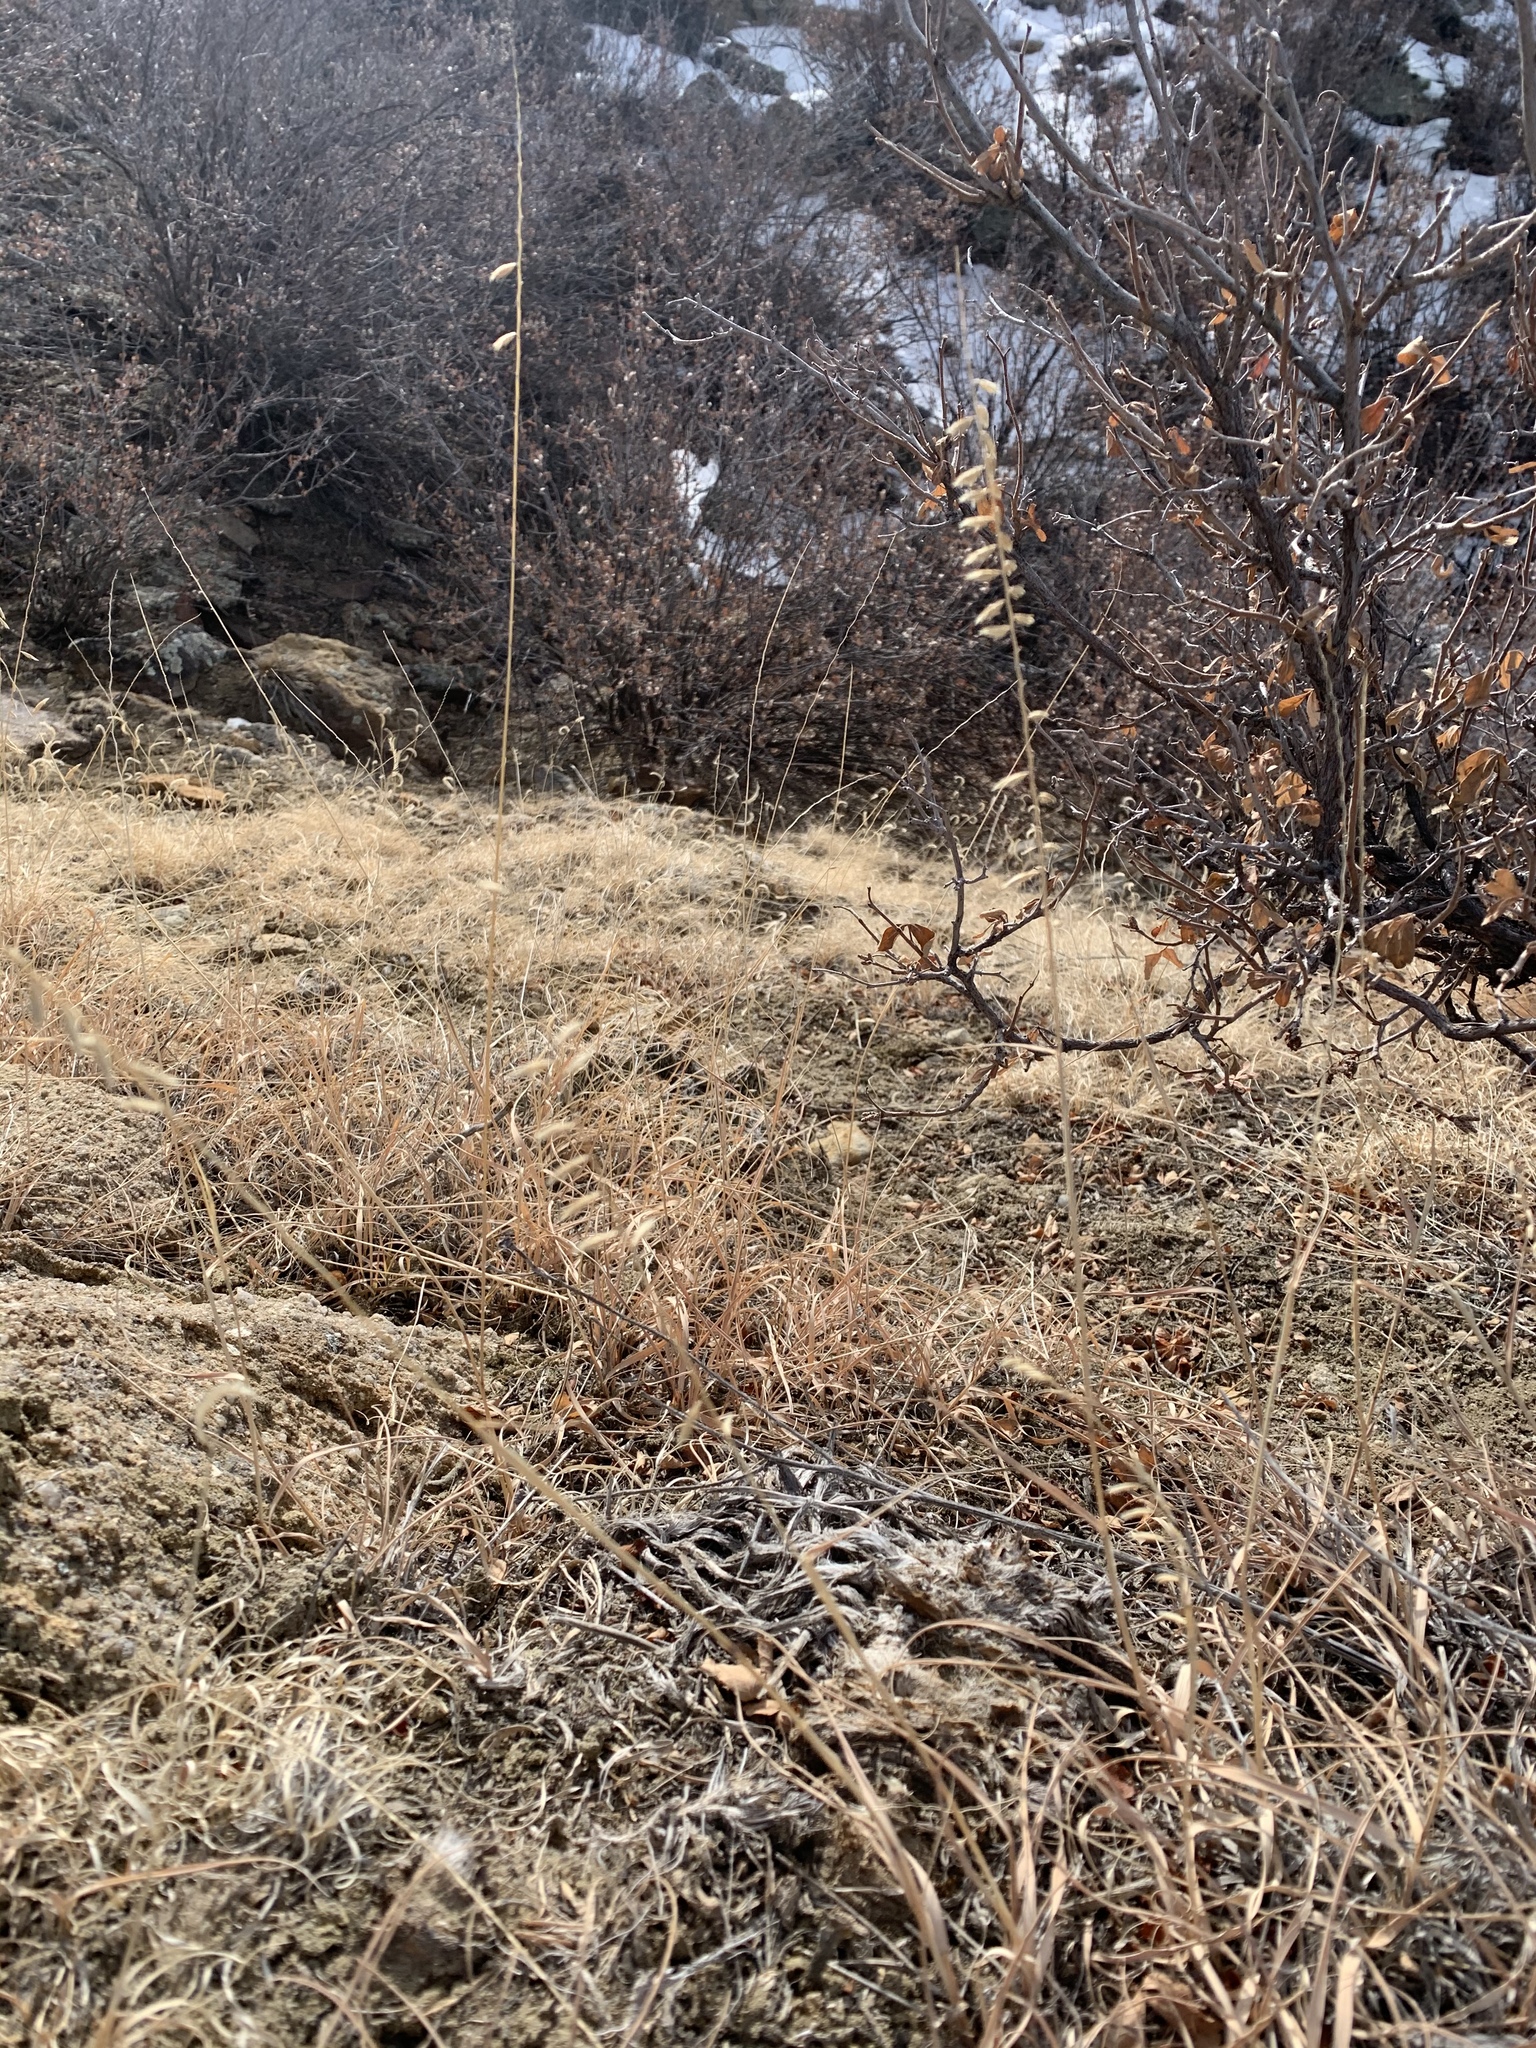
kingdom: Plantae
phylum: Tracheophyta
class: Liliopsida
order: Poales
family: Poaceae
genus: Bouteloua
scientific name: Bouteloua curtipendula
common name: Side-oats grama
